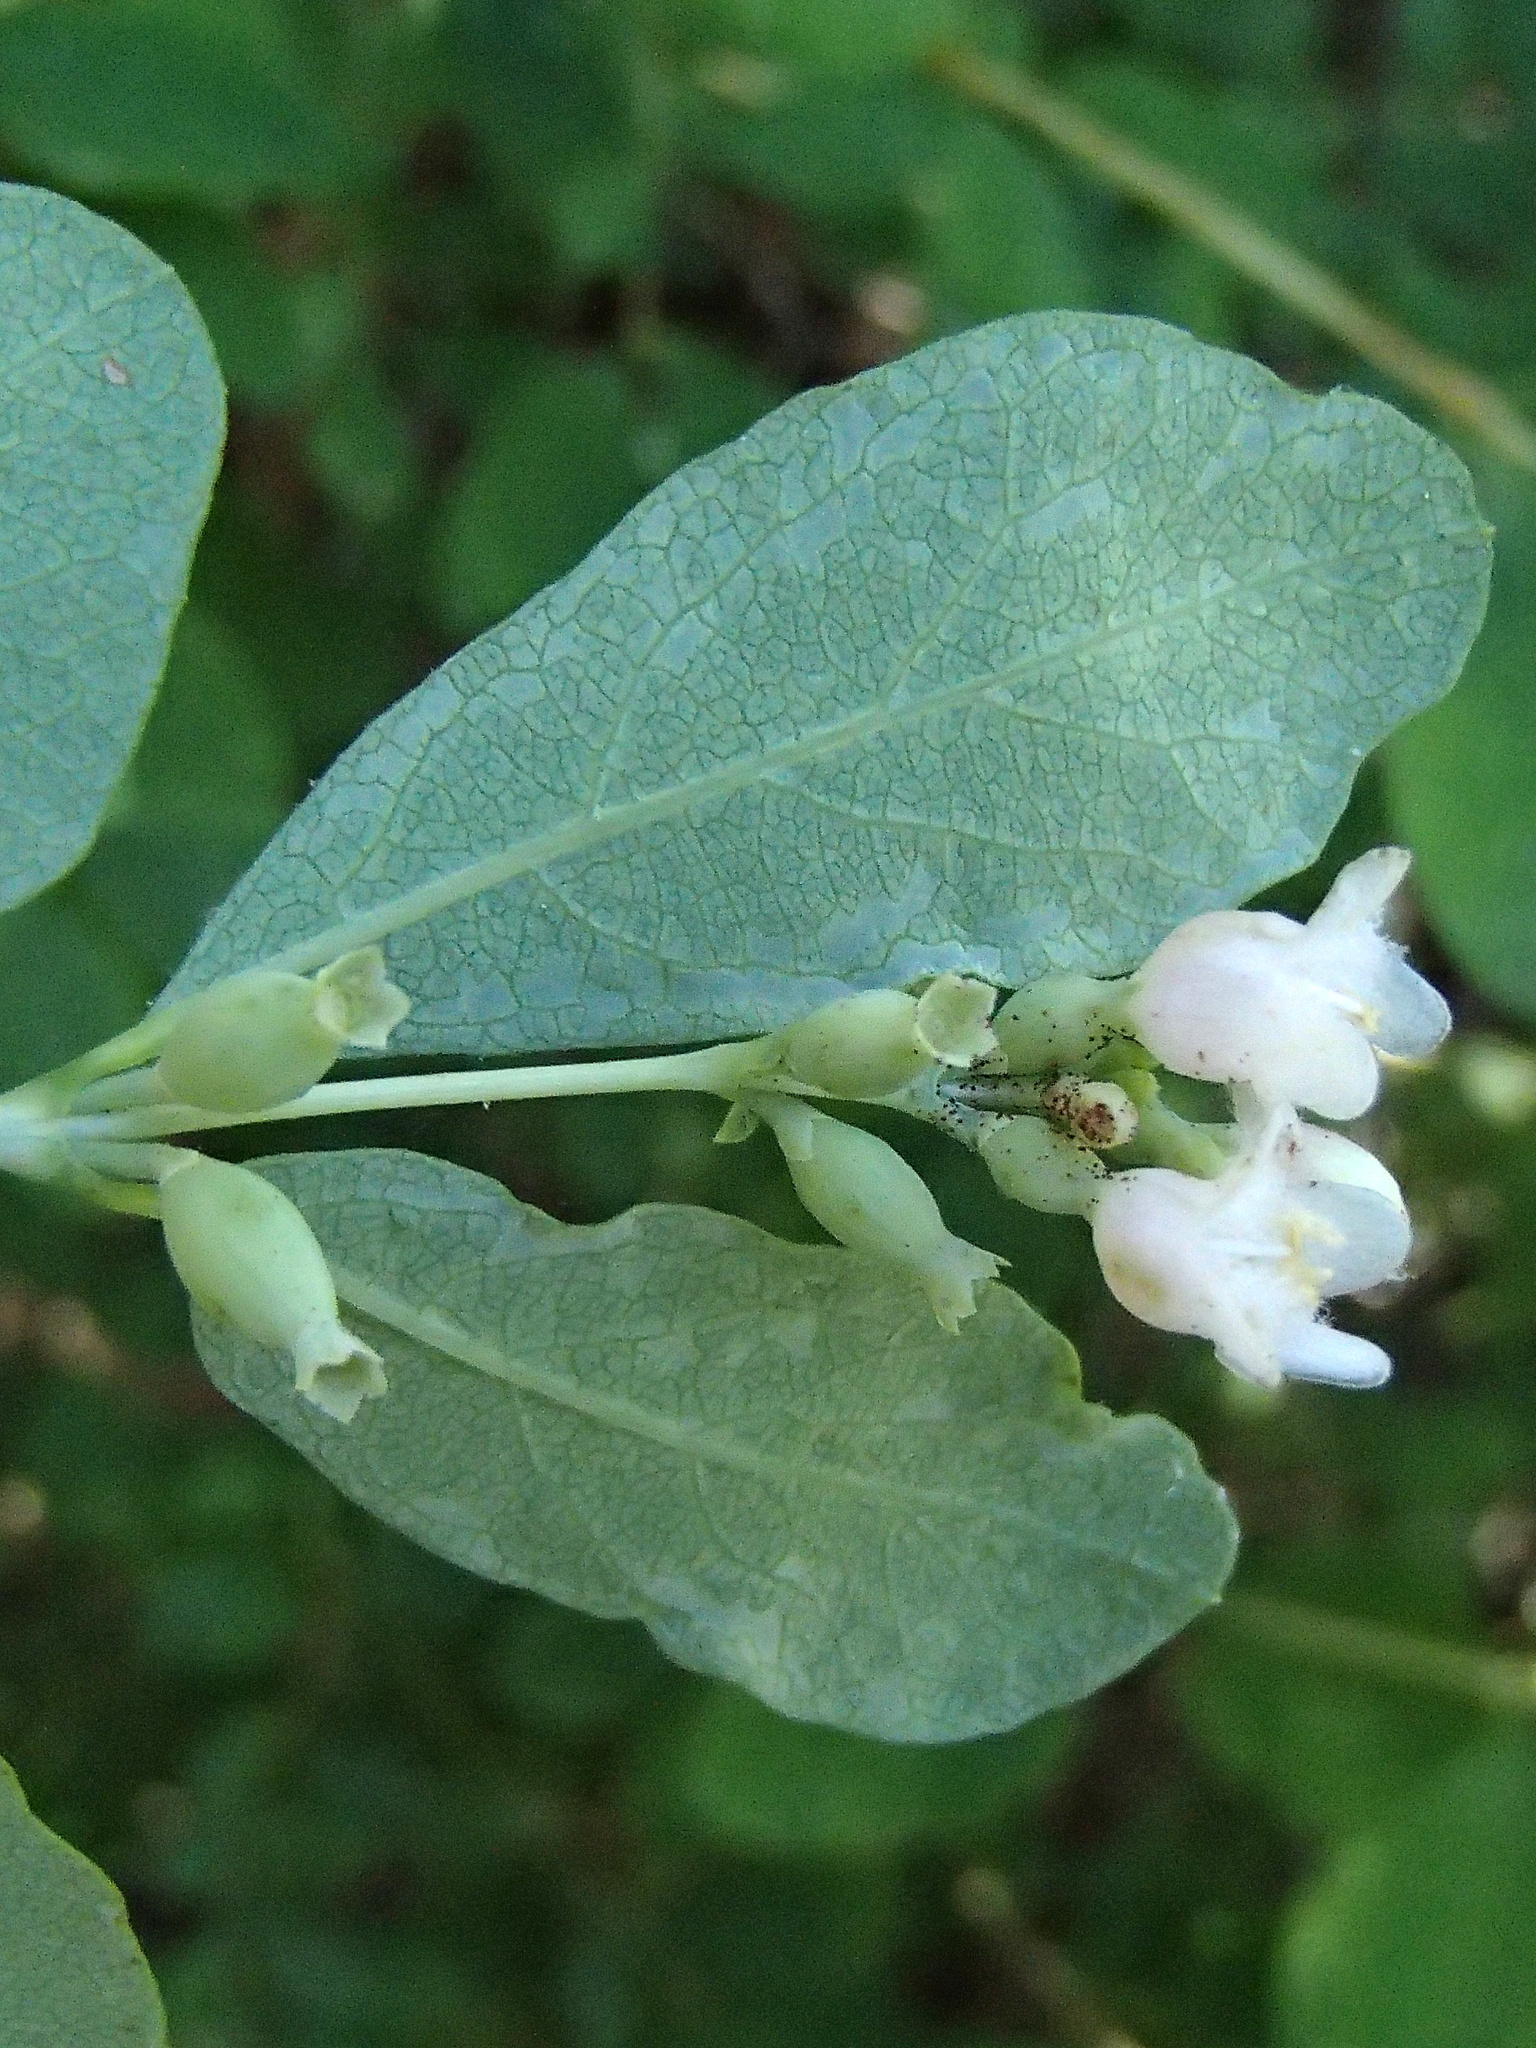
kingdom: Plantae
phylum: Tracheophyta
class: Magnoliopsida
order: Dipsacales
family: Caprifoliaceae
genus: Symphoricarpos
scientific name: Symphoricarpos albus
